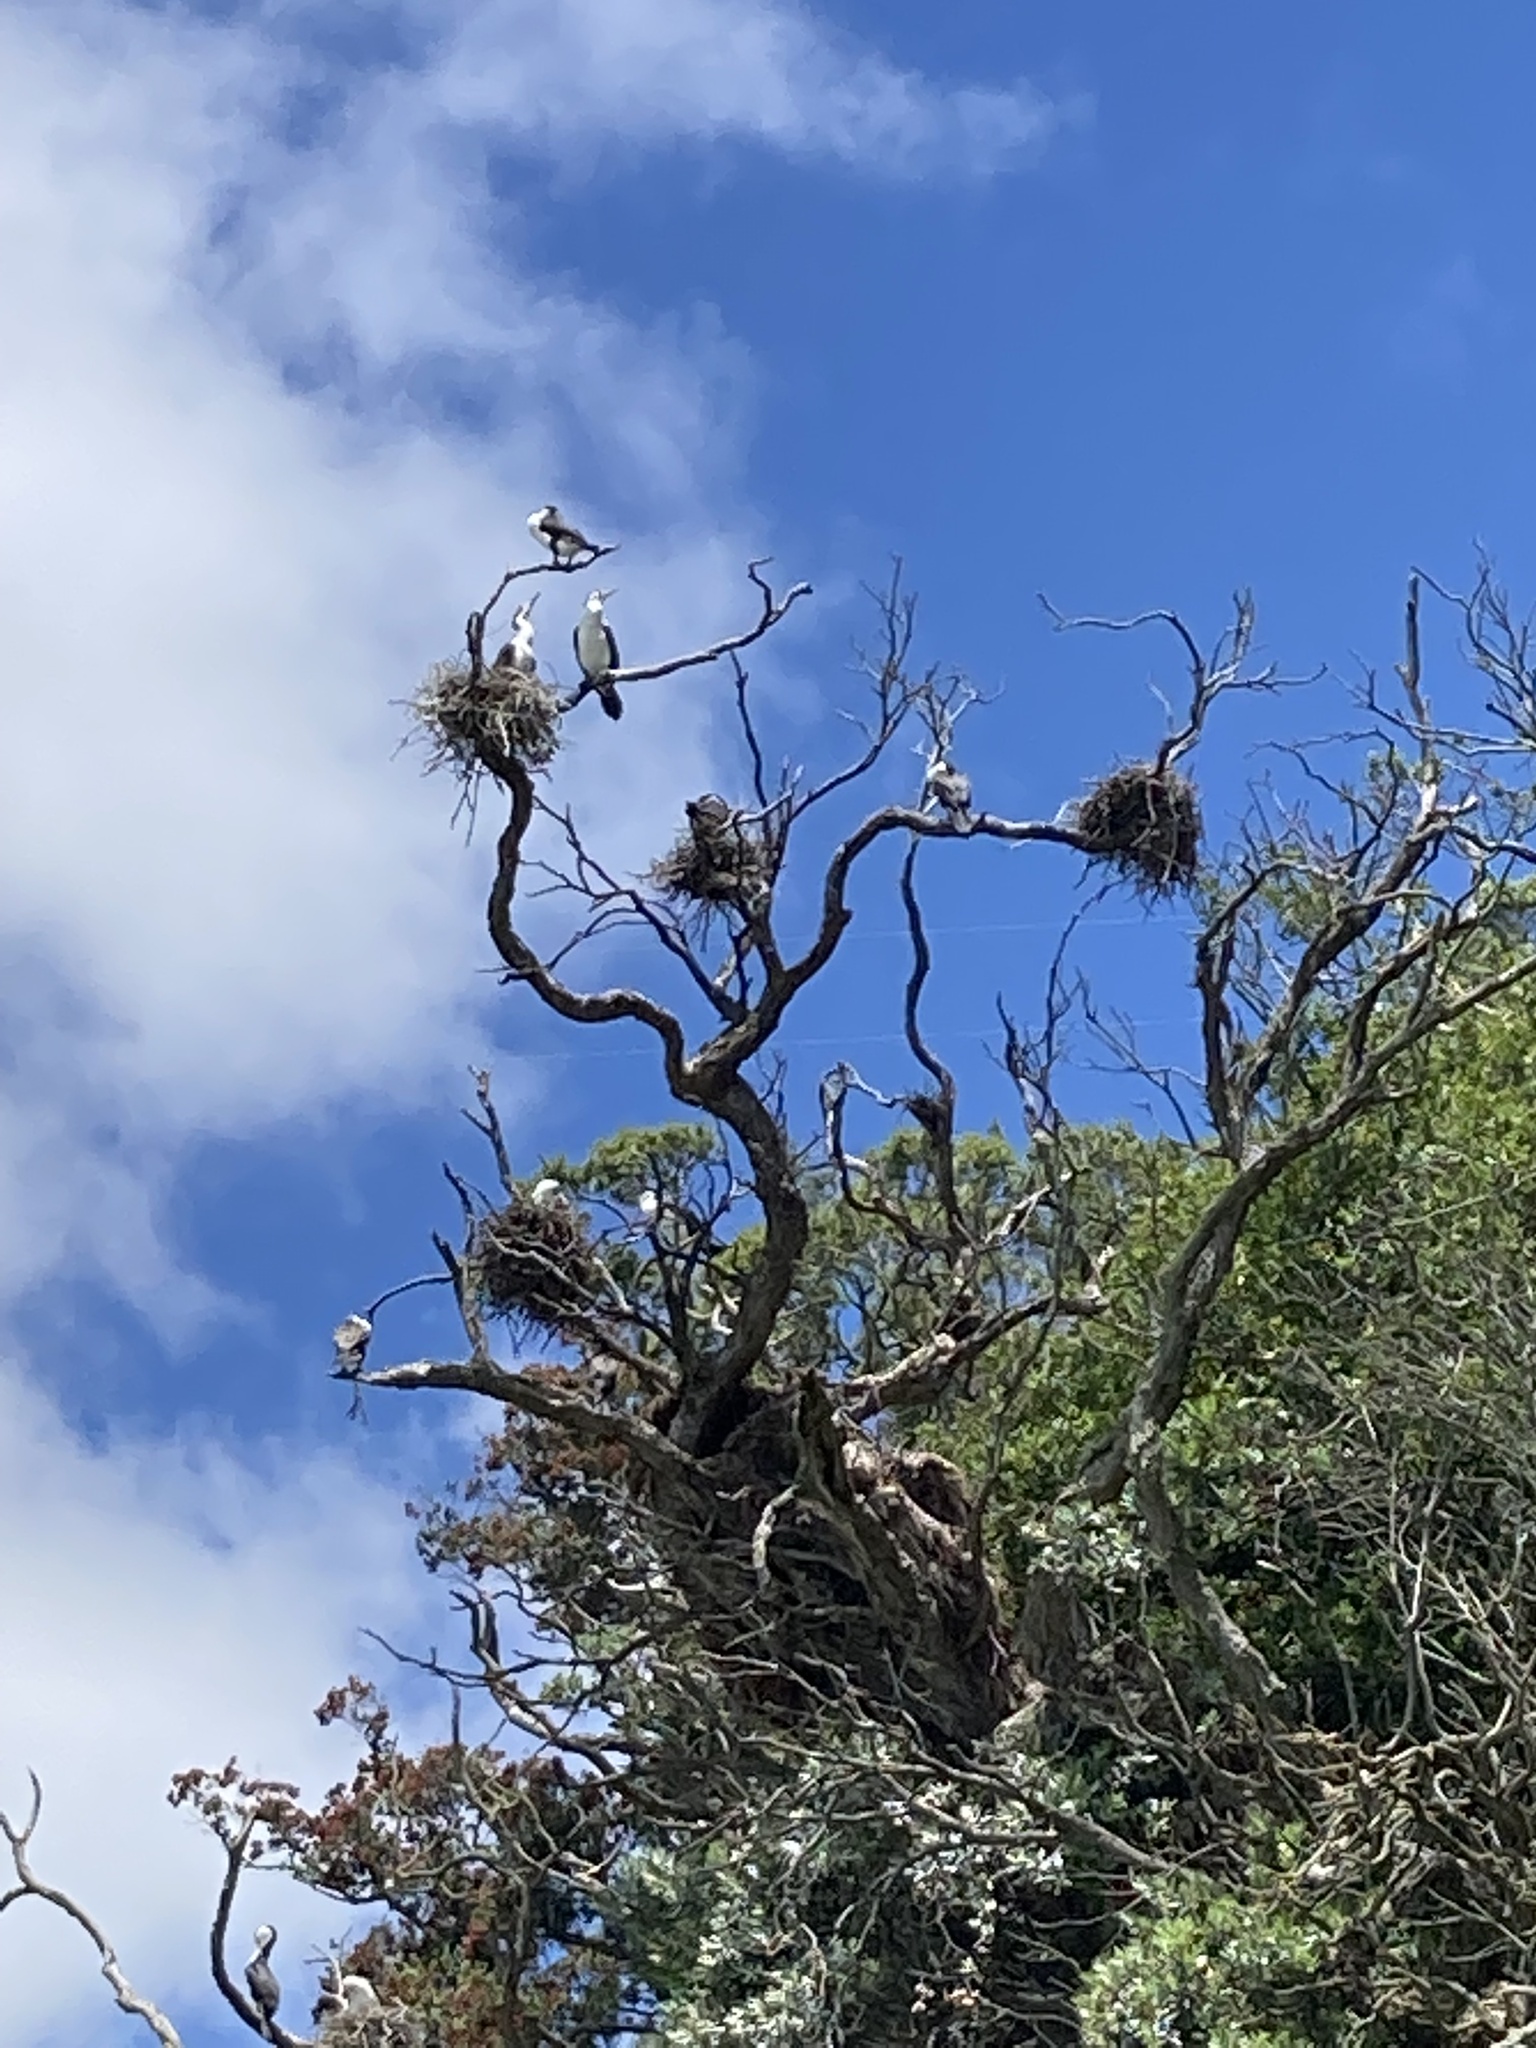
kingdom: Animalia
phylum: Chordata
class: Aves
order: Suliformes
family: Phalacrocoracidae
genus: Phalacrocorax
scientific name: Phalacrocorax varius
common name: Pied cormorant
